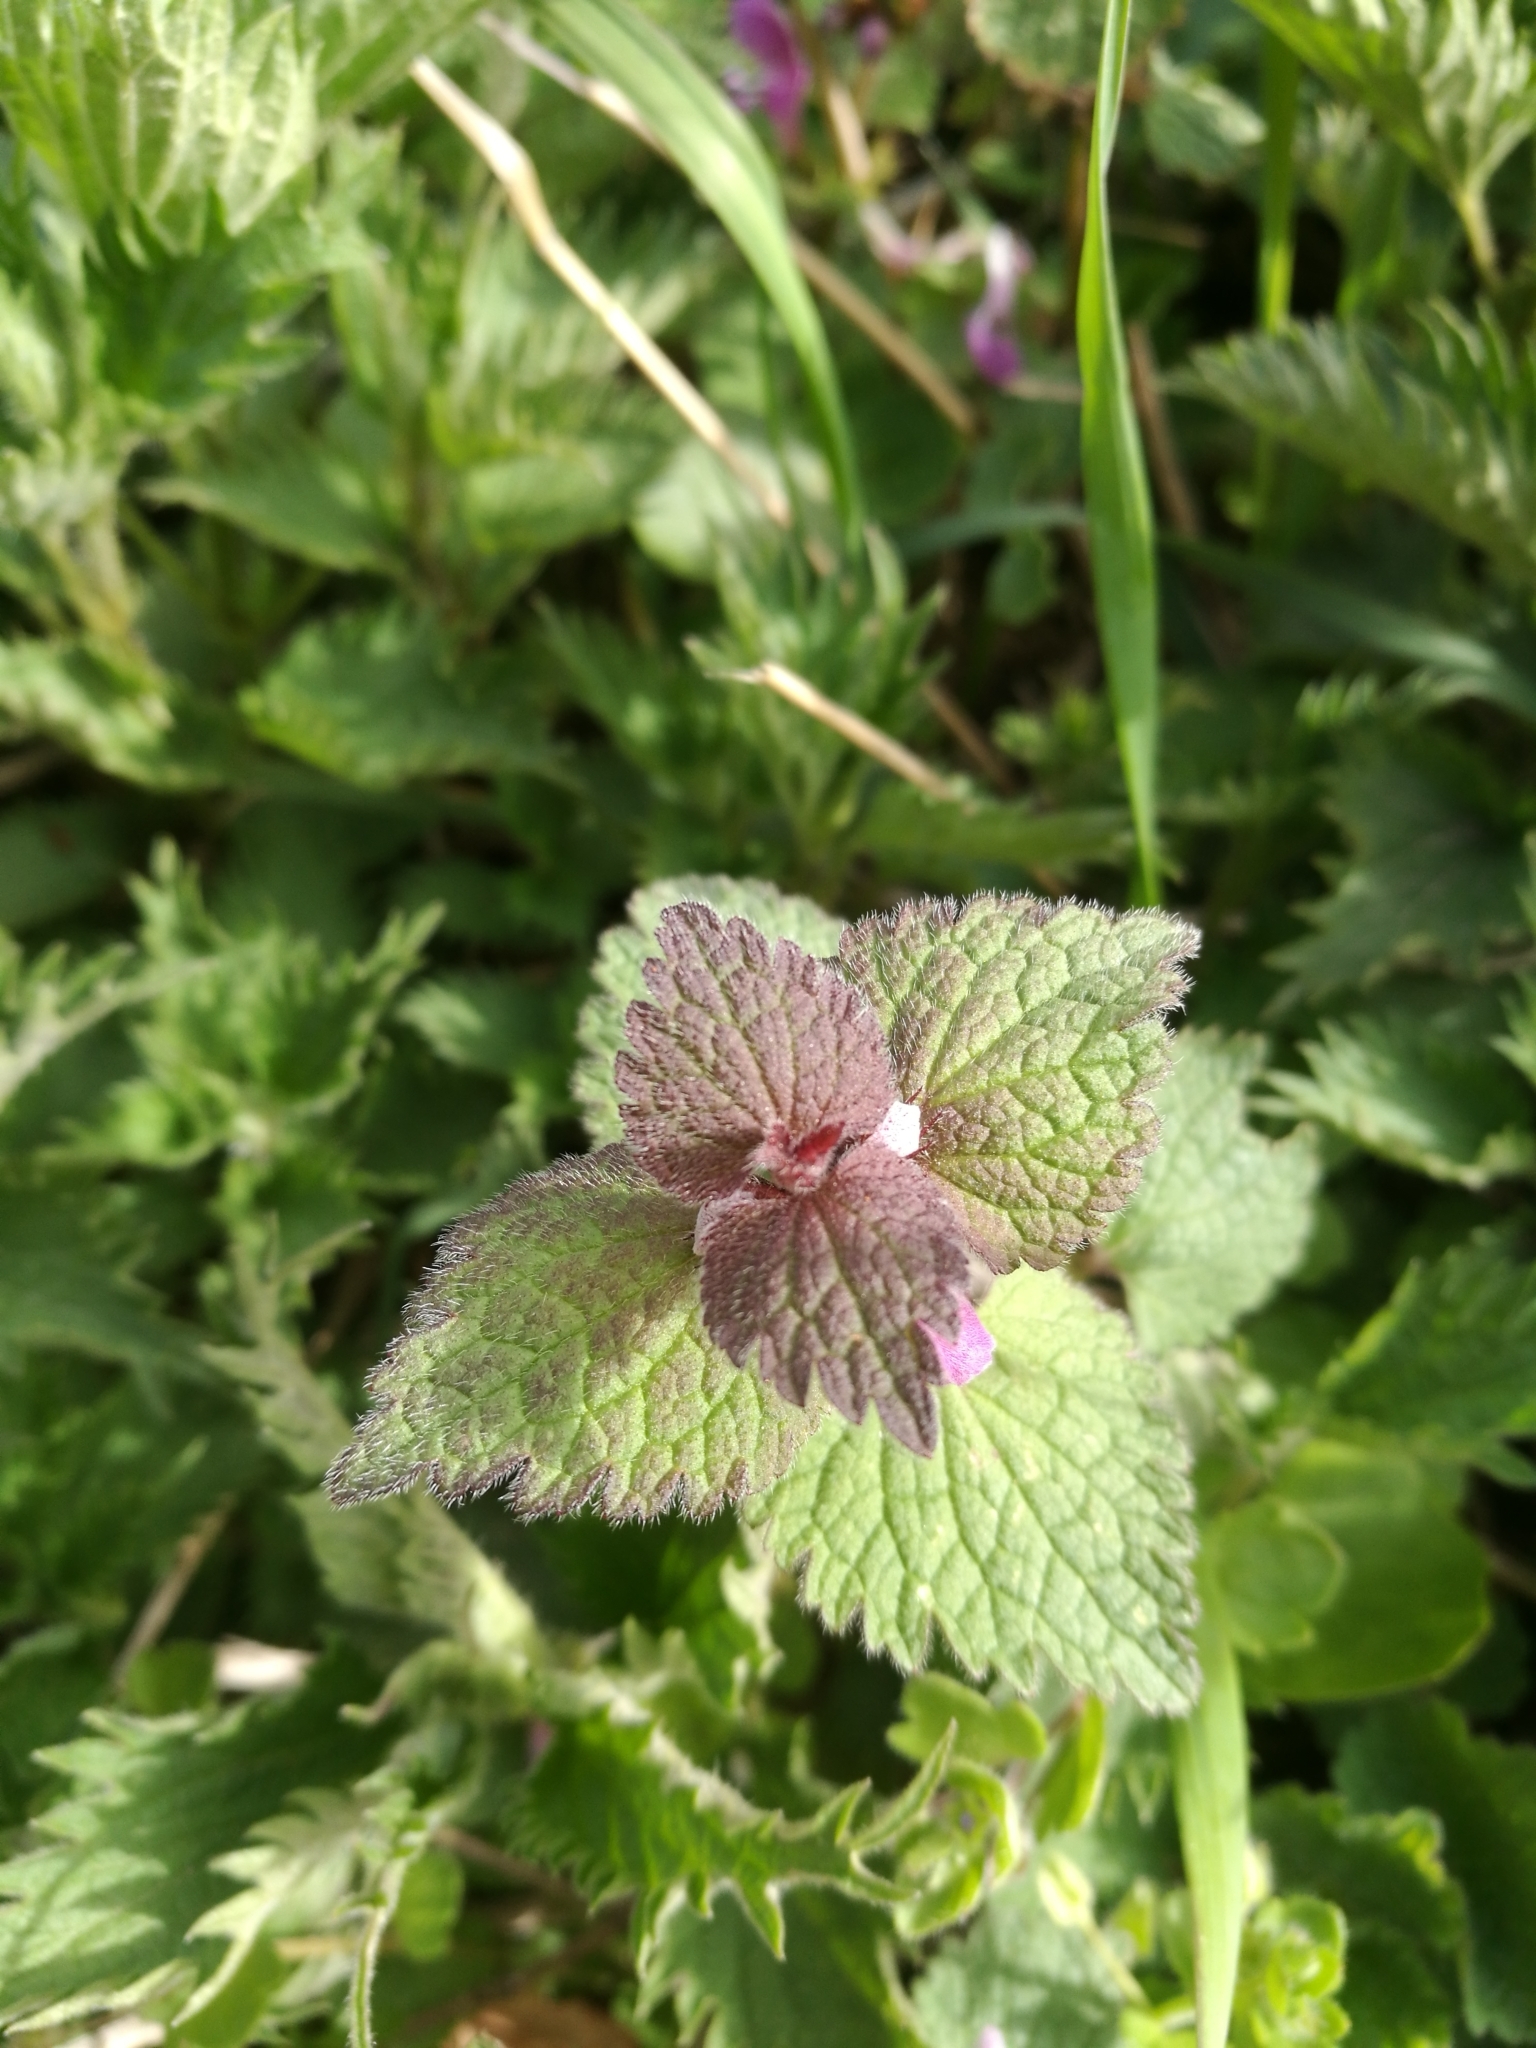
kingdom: Plantae
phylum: Tracheophyta
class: Magnoliopsida
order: Lamiales
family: Lamiaceae
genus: Lamium
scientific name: Lamium maculatum
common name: Spotted dead-nettle
